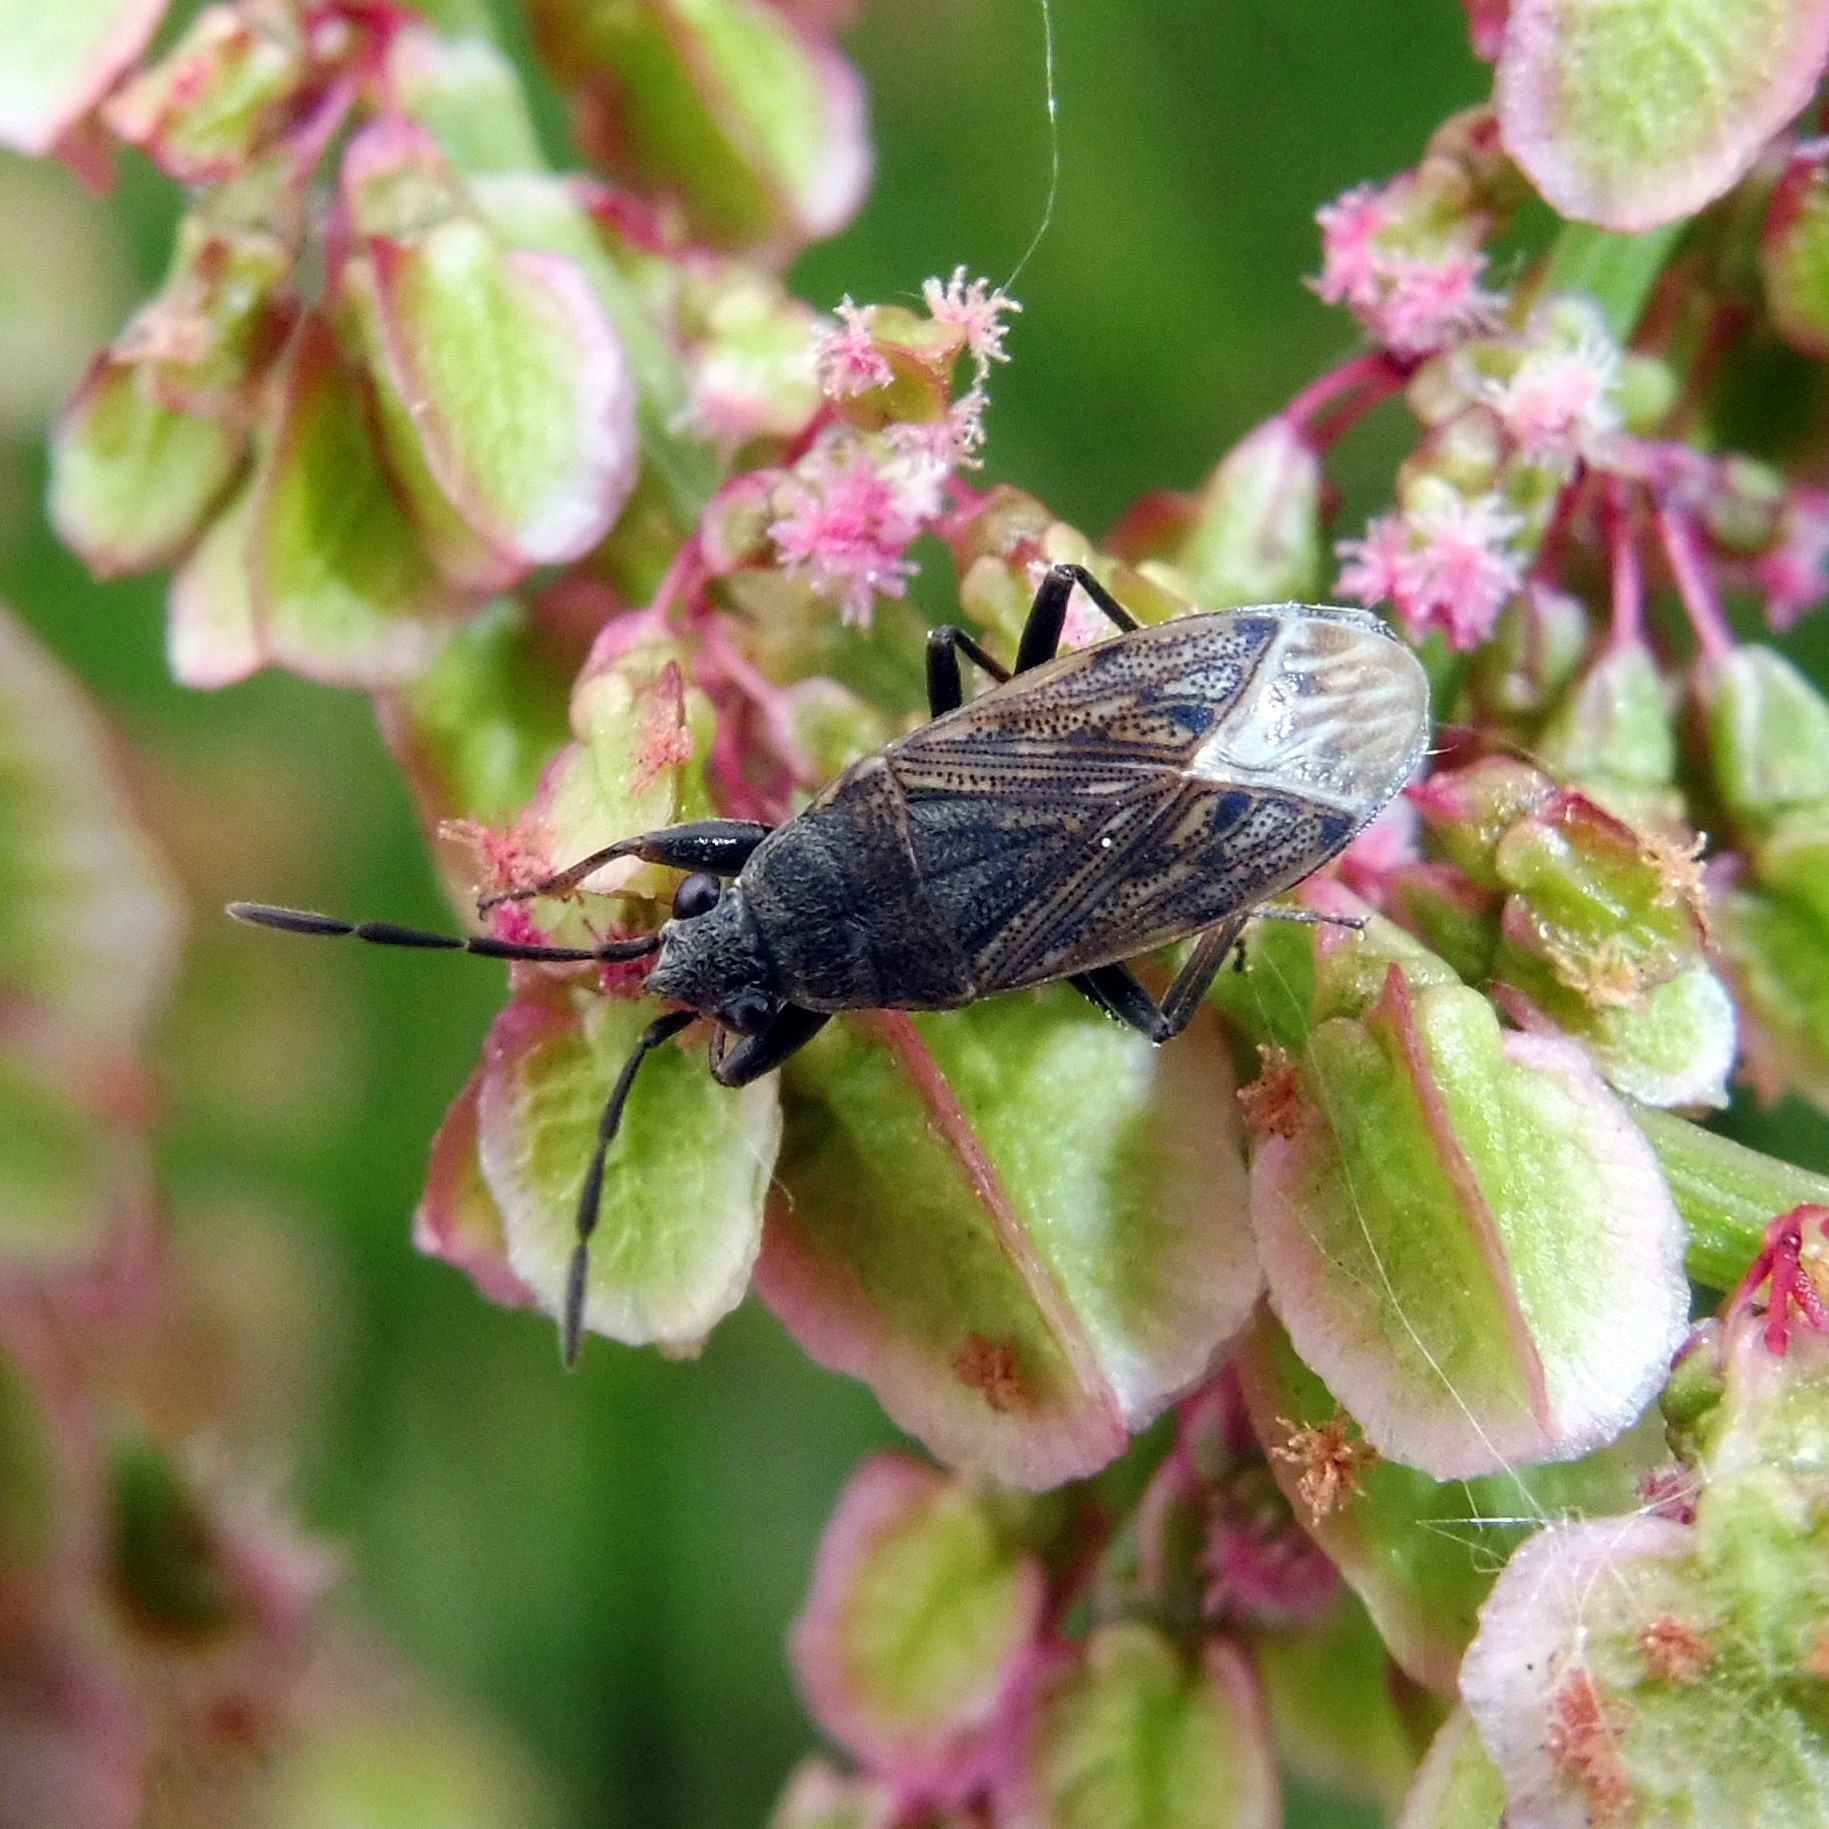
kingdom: Animalia
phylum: Arthropoda
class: Insecta
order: Hemiptera
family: Rhyparochromidae
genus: Peritrechus
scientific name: Peritrechus geniculatus
